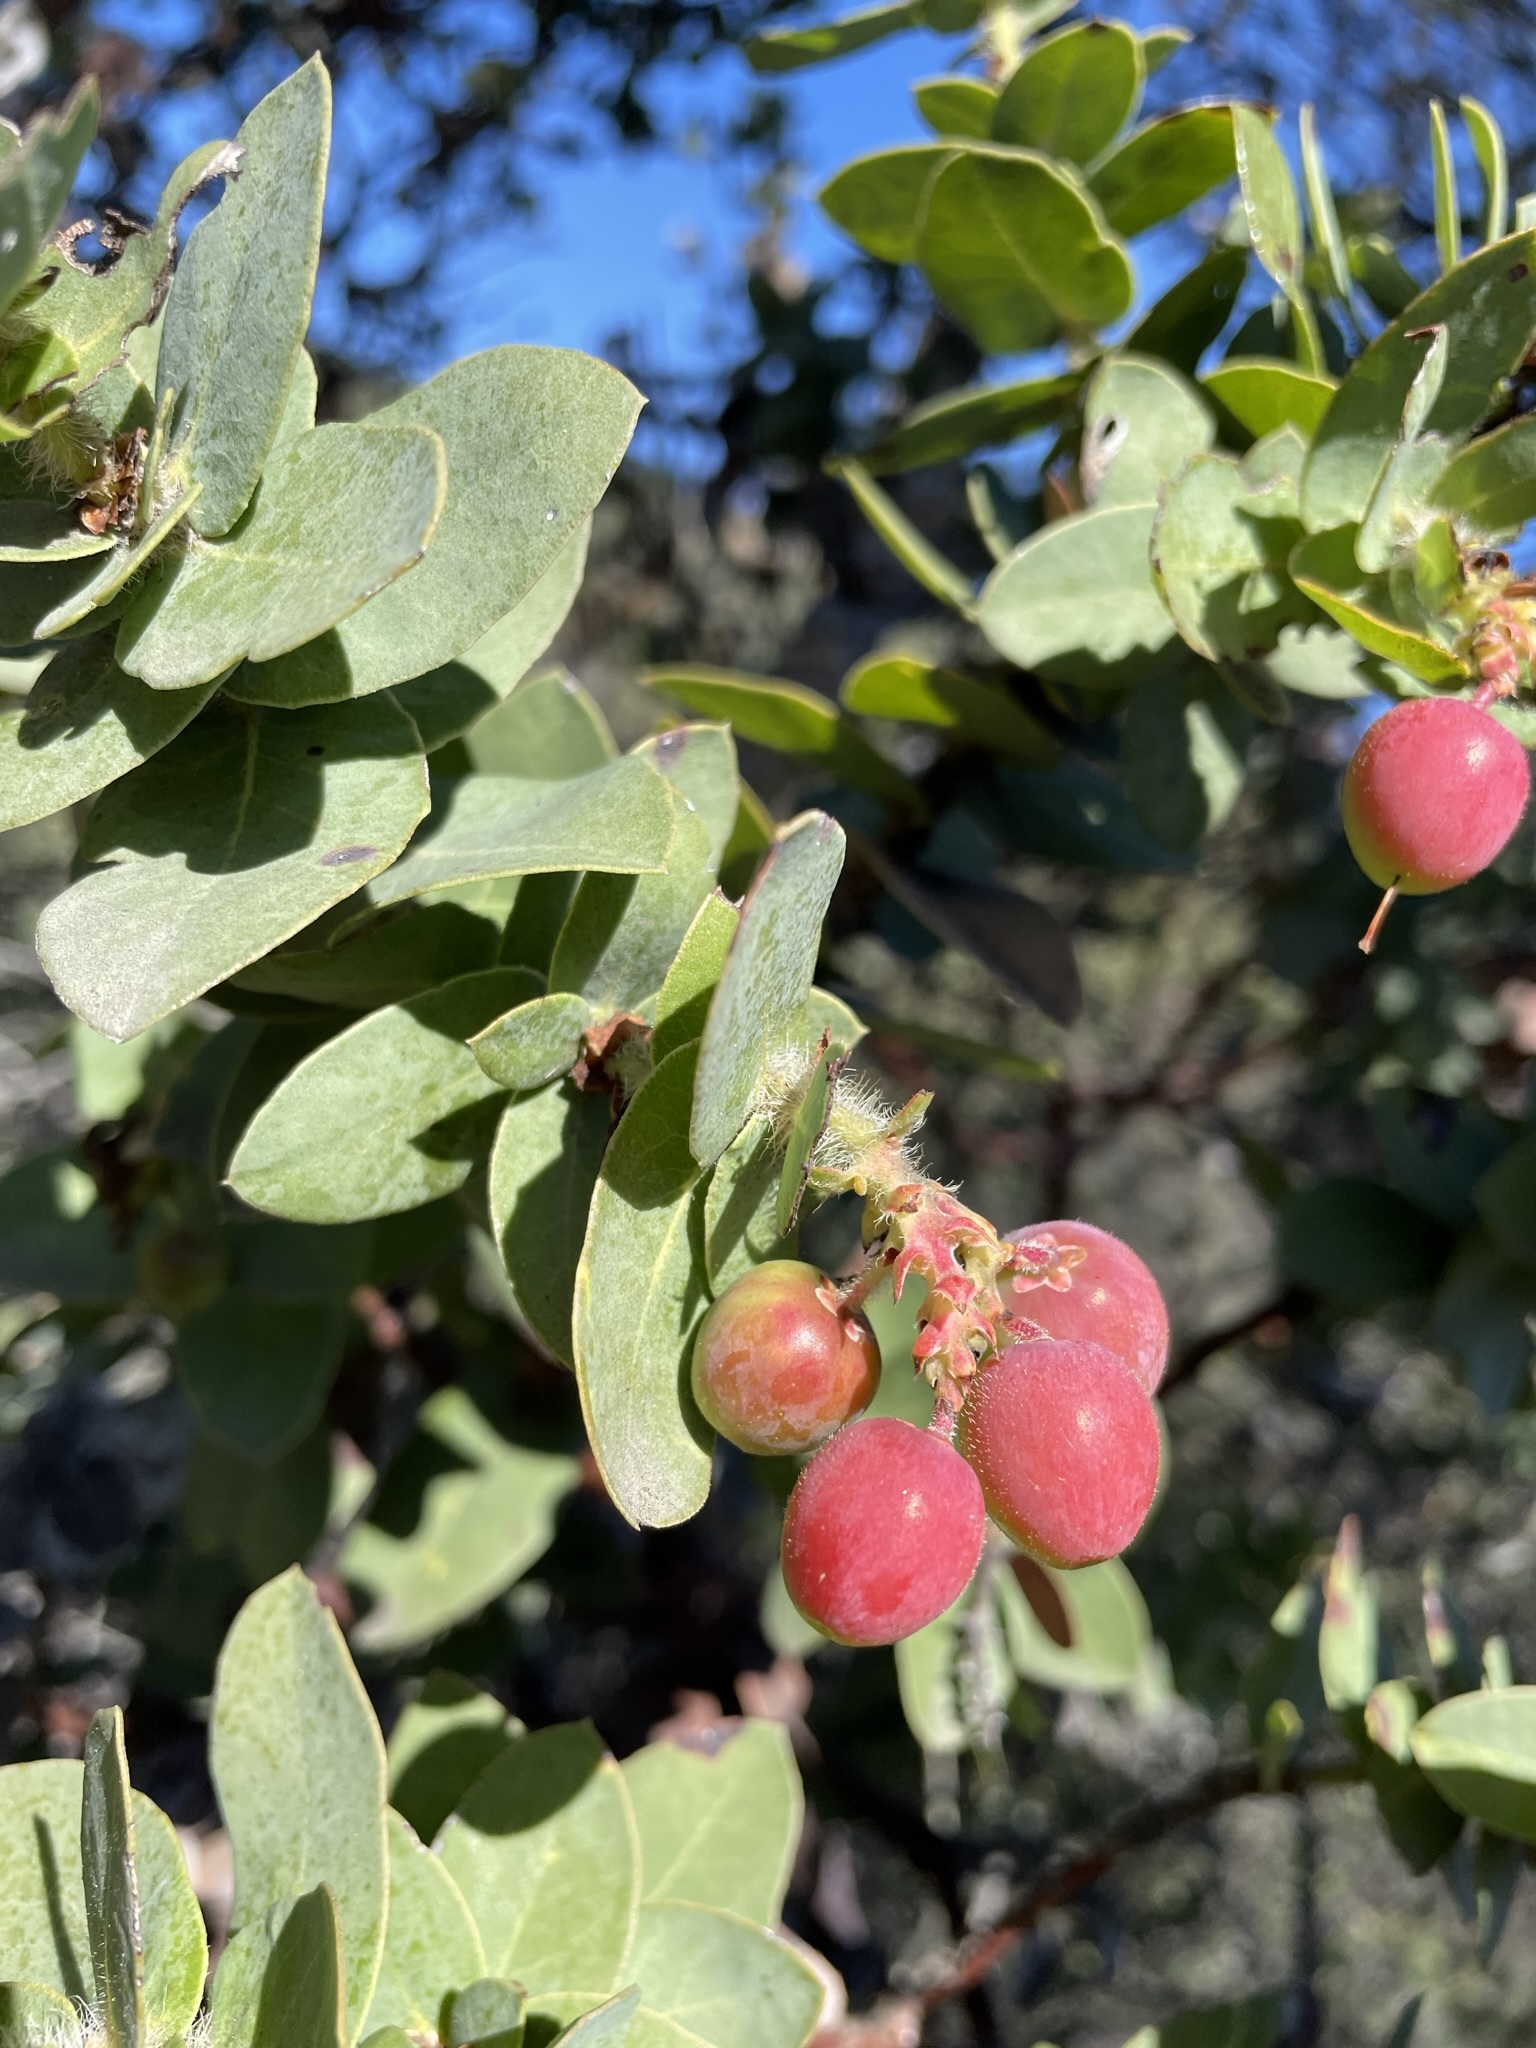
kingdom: Plantae
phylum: Tracheophyta
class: Magnoliopsida
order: Ericales
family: Ericaceae
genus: Arctostaphylos
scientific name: Arctostaphylos refugioensis
